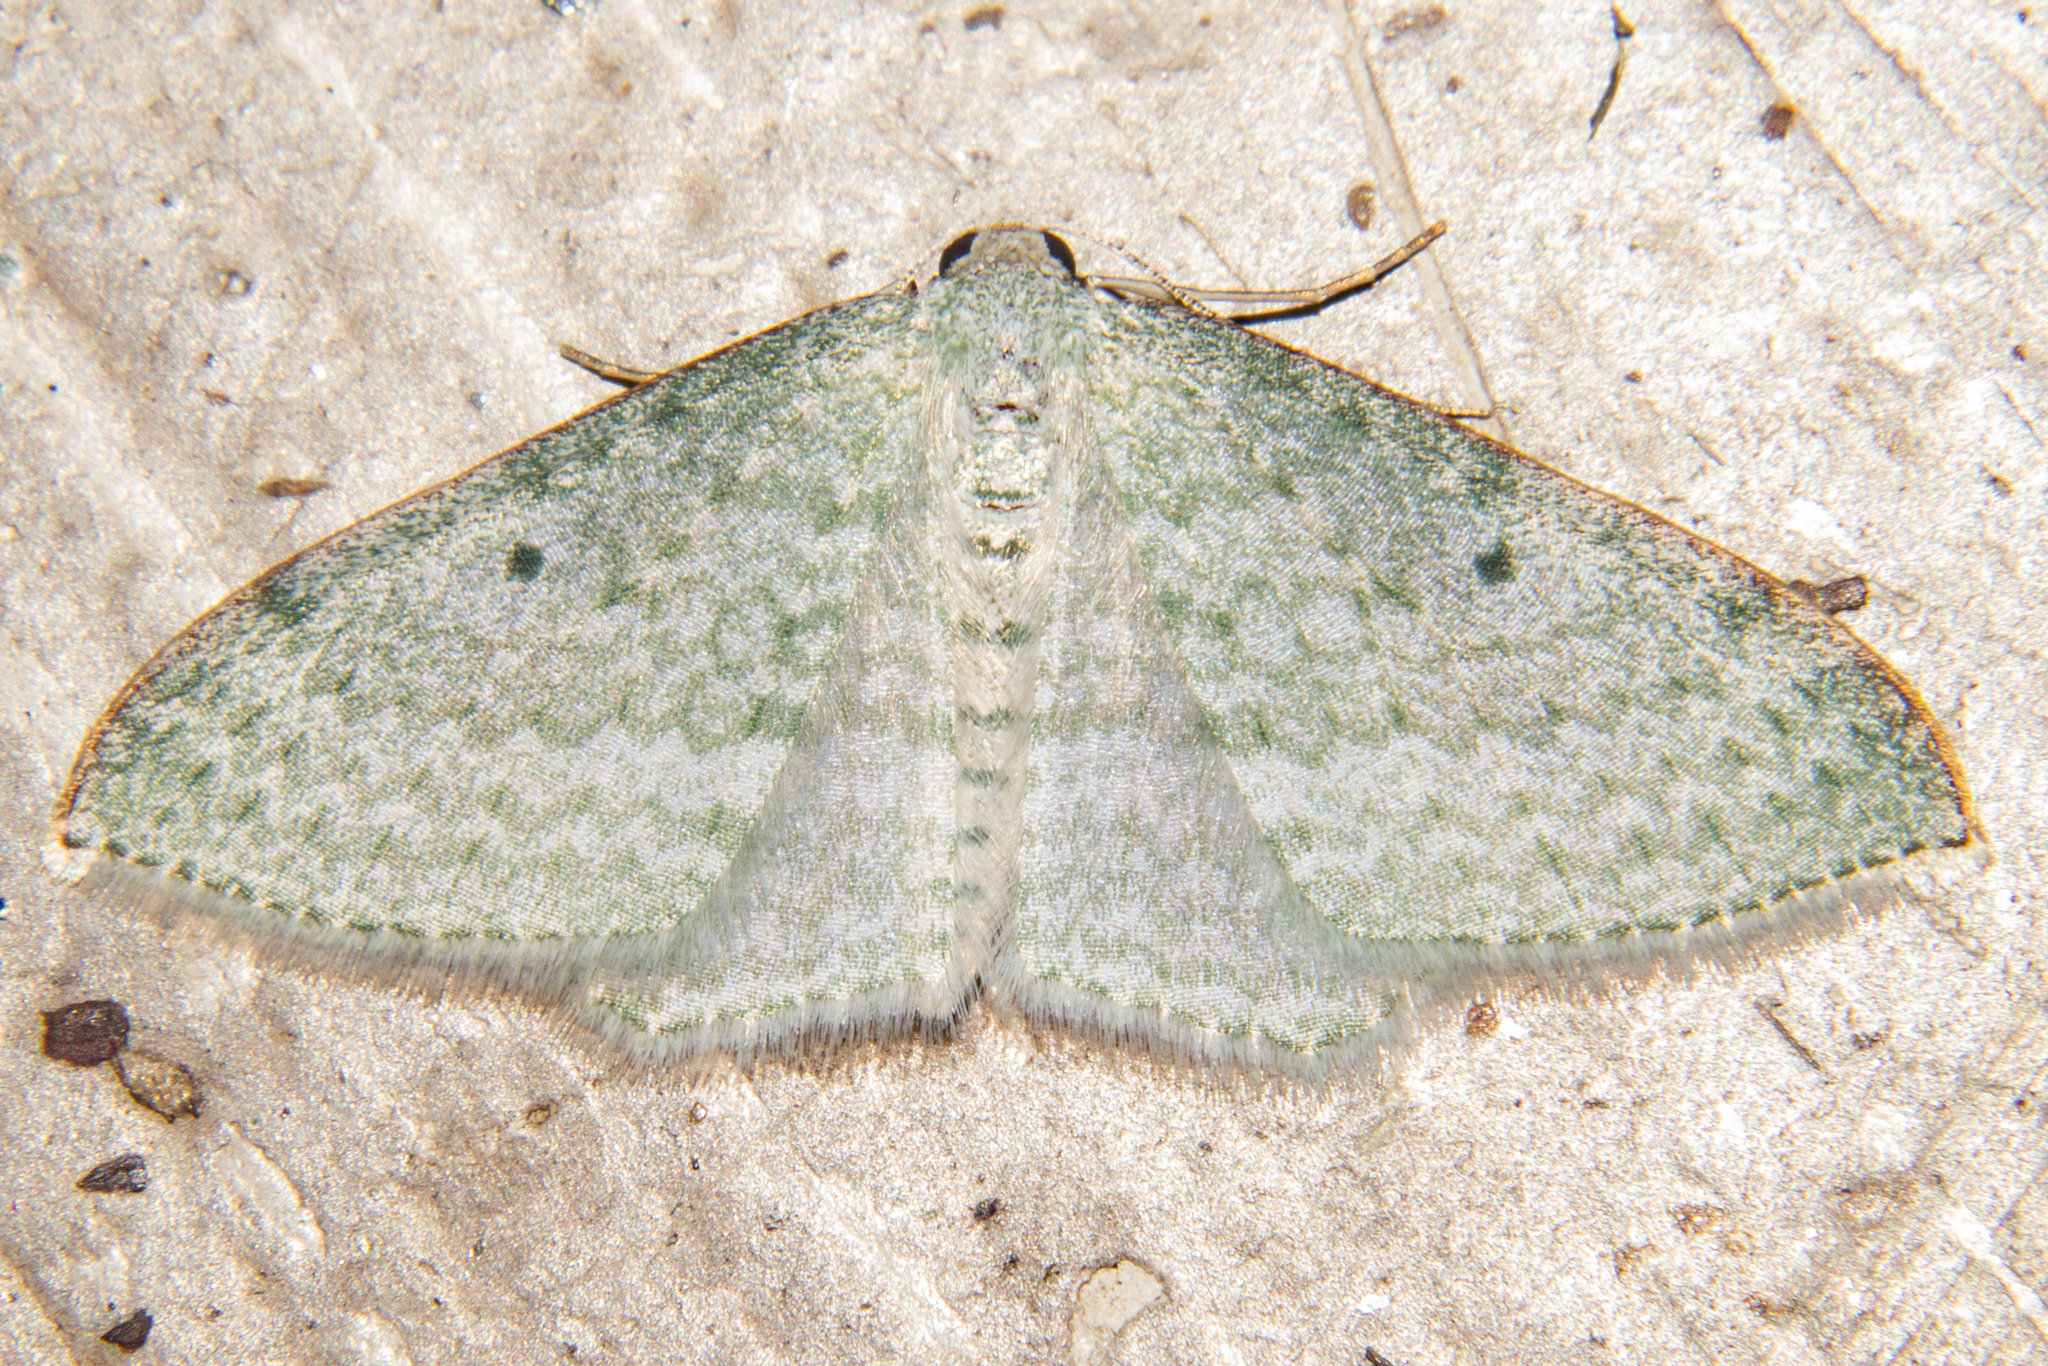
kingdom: Animalia
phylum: Arthropoda
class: Insecta
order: Lepidoptera
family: Geometridae
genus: Poecilasthena
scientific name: Poecilasthena pulchraria
